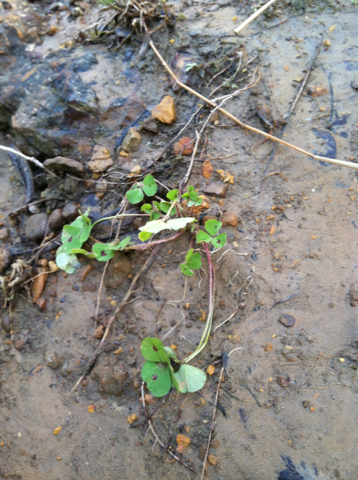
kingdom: Plantae
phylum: Tracheophyta
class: Magnoliopsida
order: Fabales
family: Fabaceae
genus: Medicago
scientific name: Medicago arabica
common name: Spotted medick
